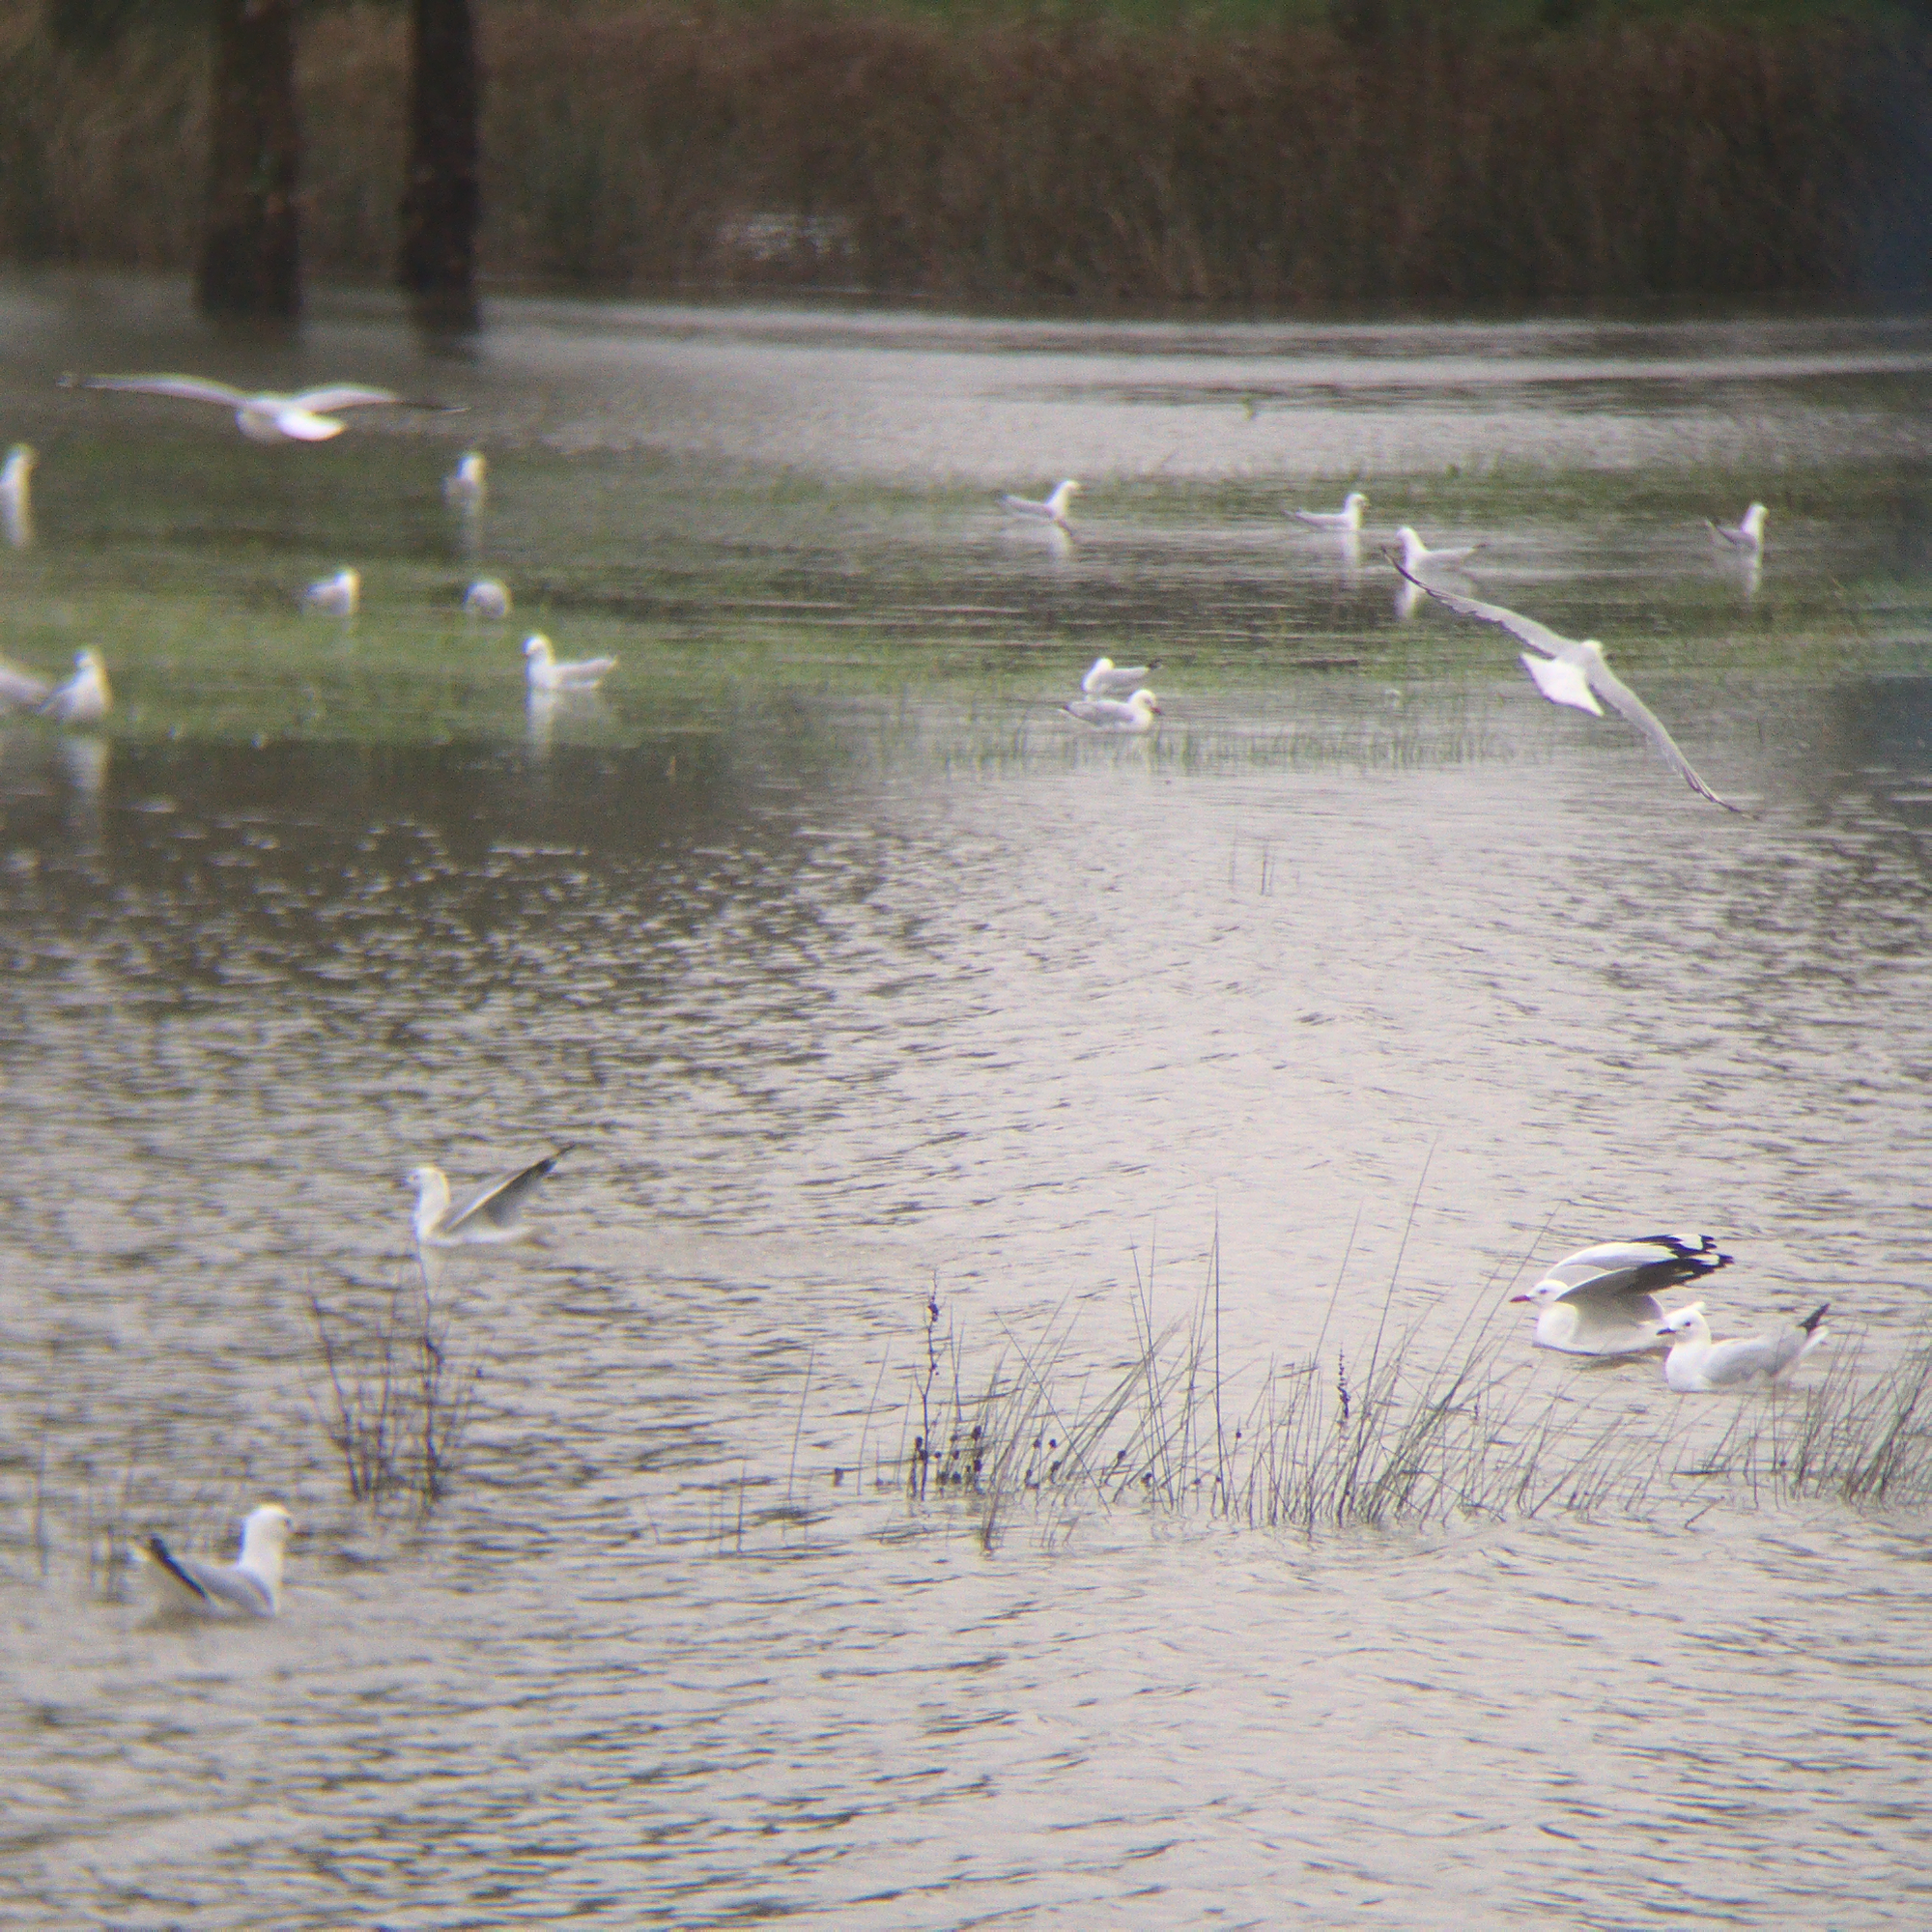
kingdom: Animalia
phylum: Chordata
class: Aves
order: Charadriiformes
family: Laridae
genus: Chroicocephalus
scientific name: Chroicocephalus novaehollandiae
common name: Silver gull
